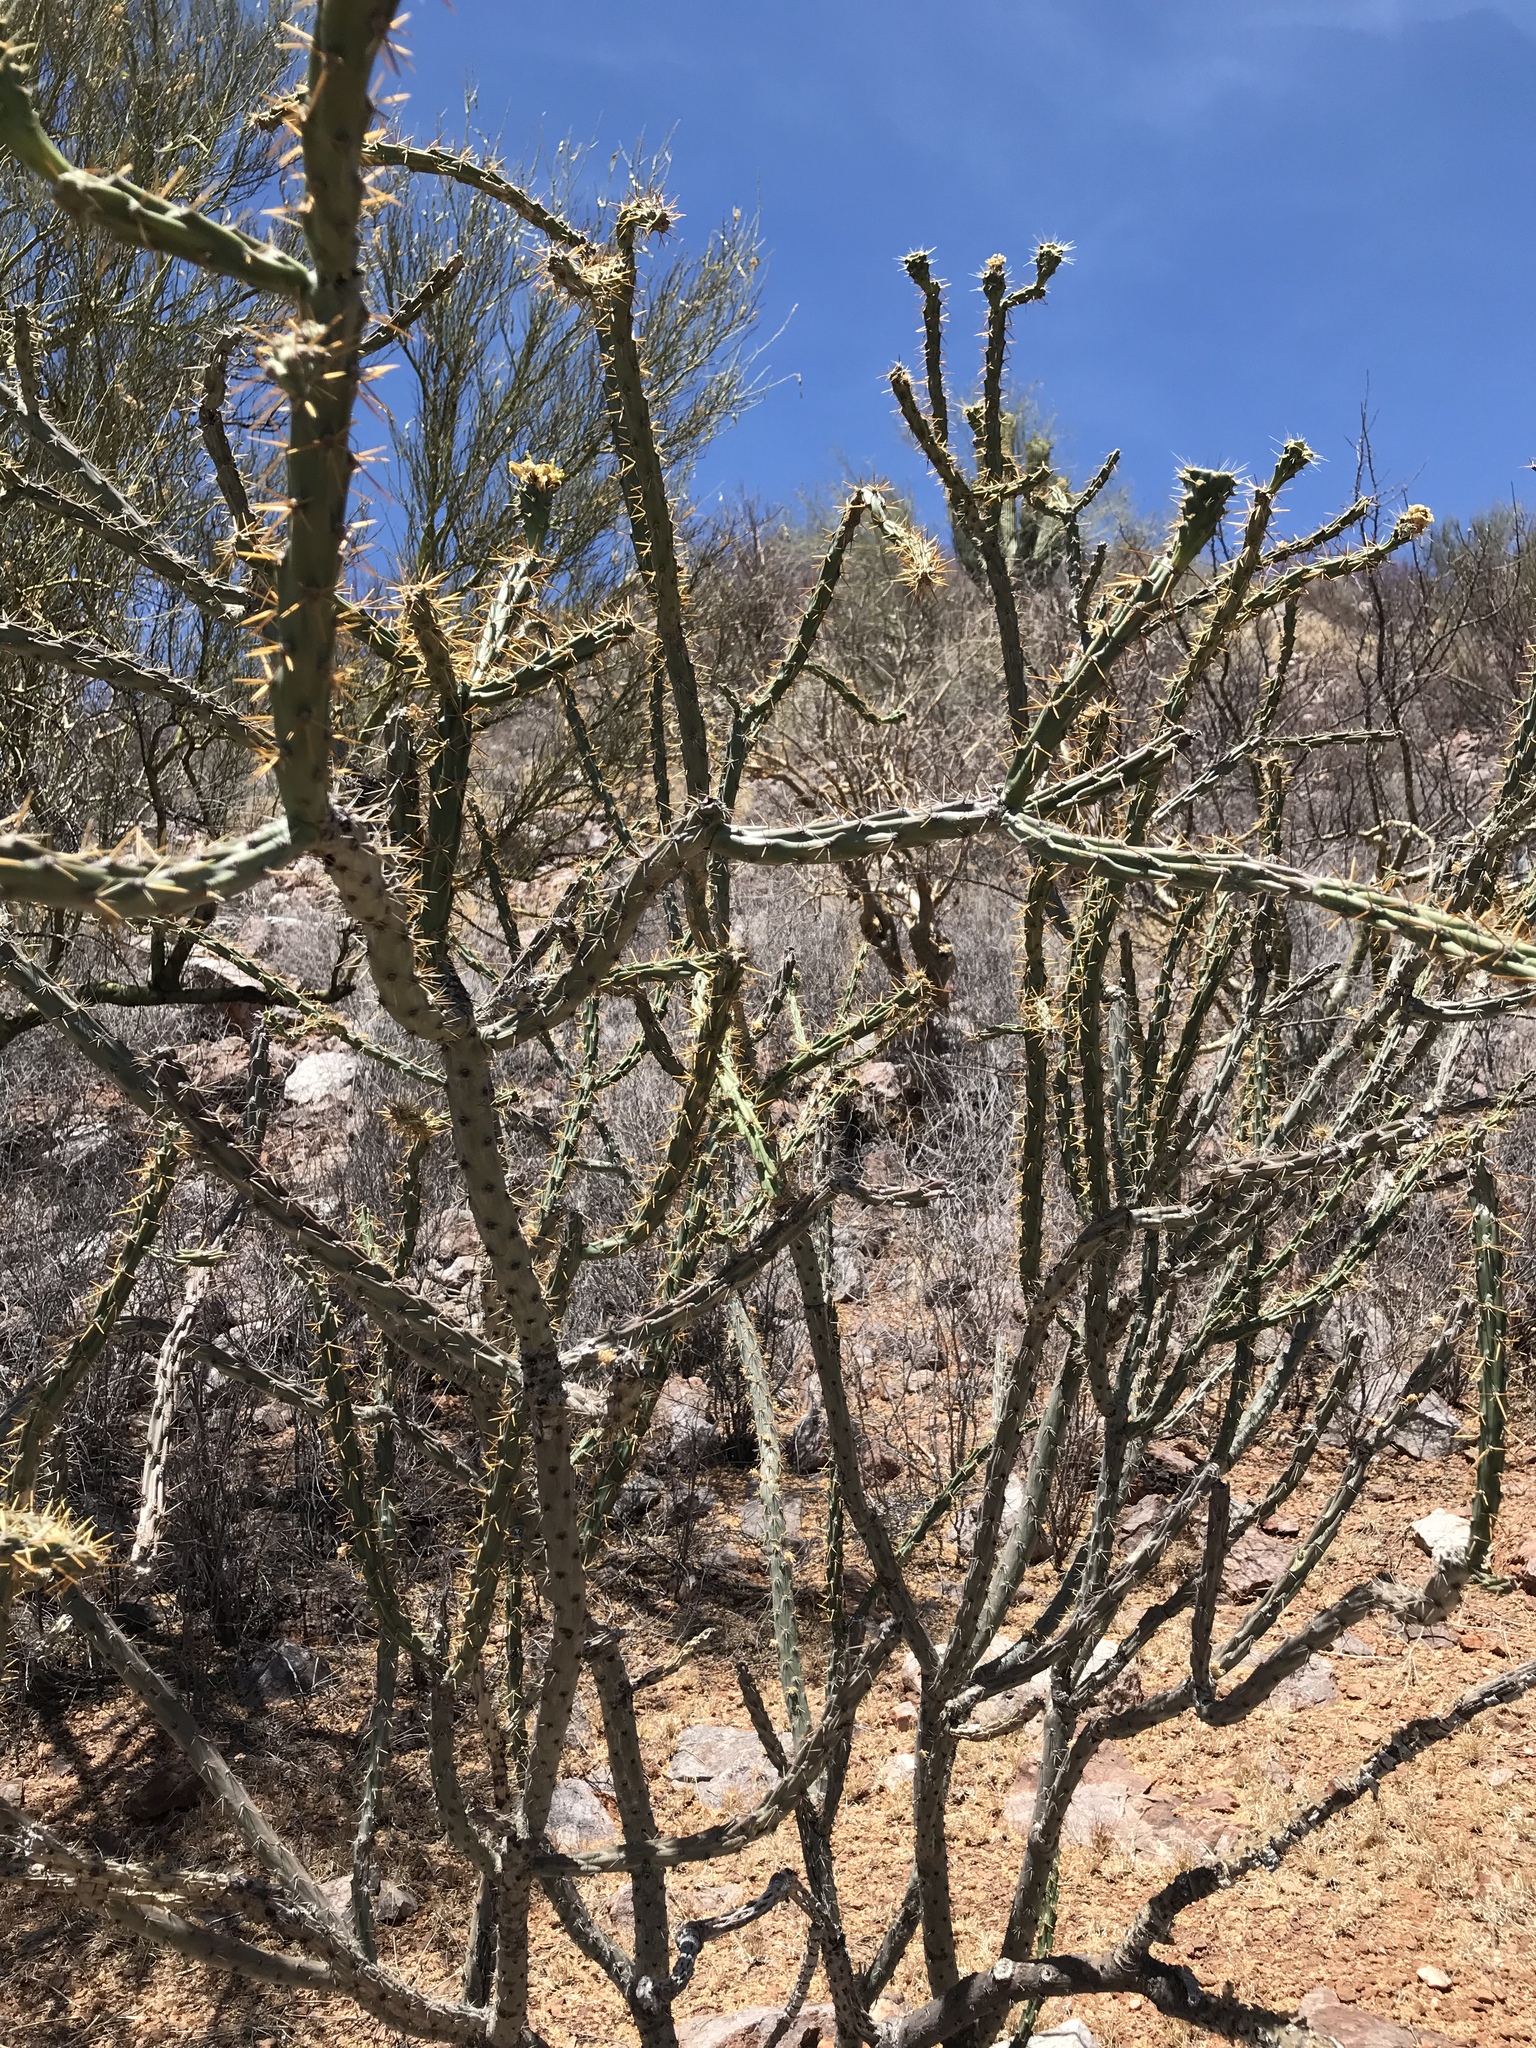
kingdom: Plantae
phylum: Tracheophyta
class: Magnoliopsida
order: Caryophyllales
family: Cactaceae
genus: Cylindropuntia
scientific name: Cylindropuntia thurberi
